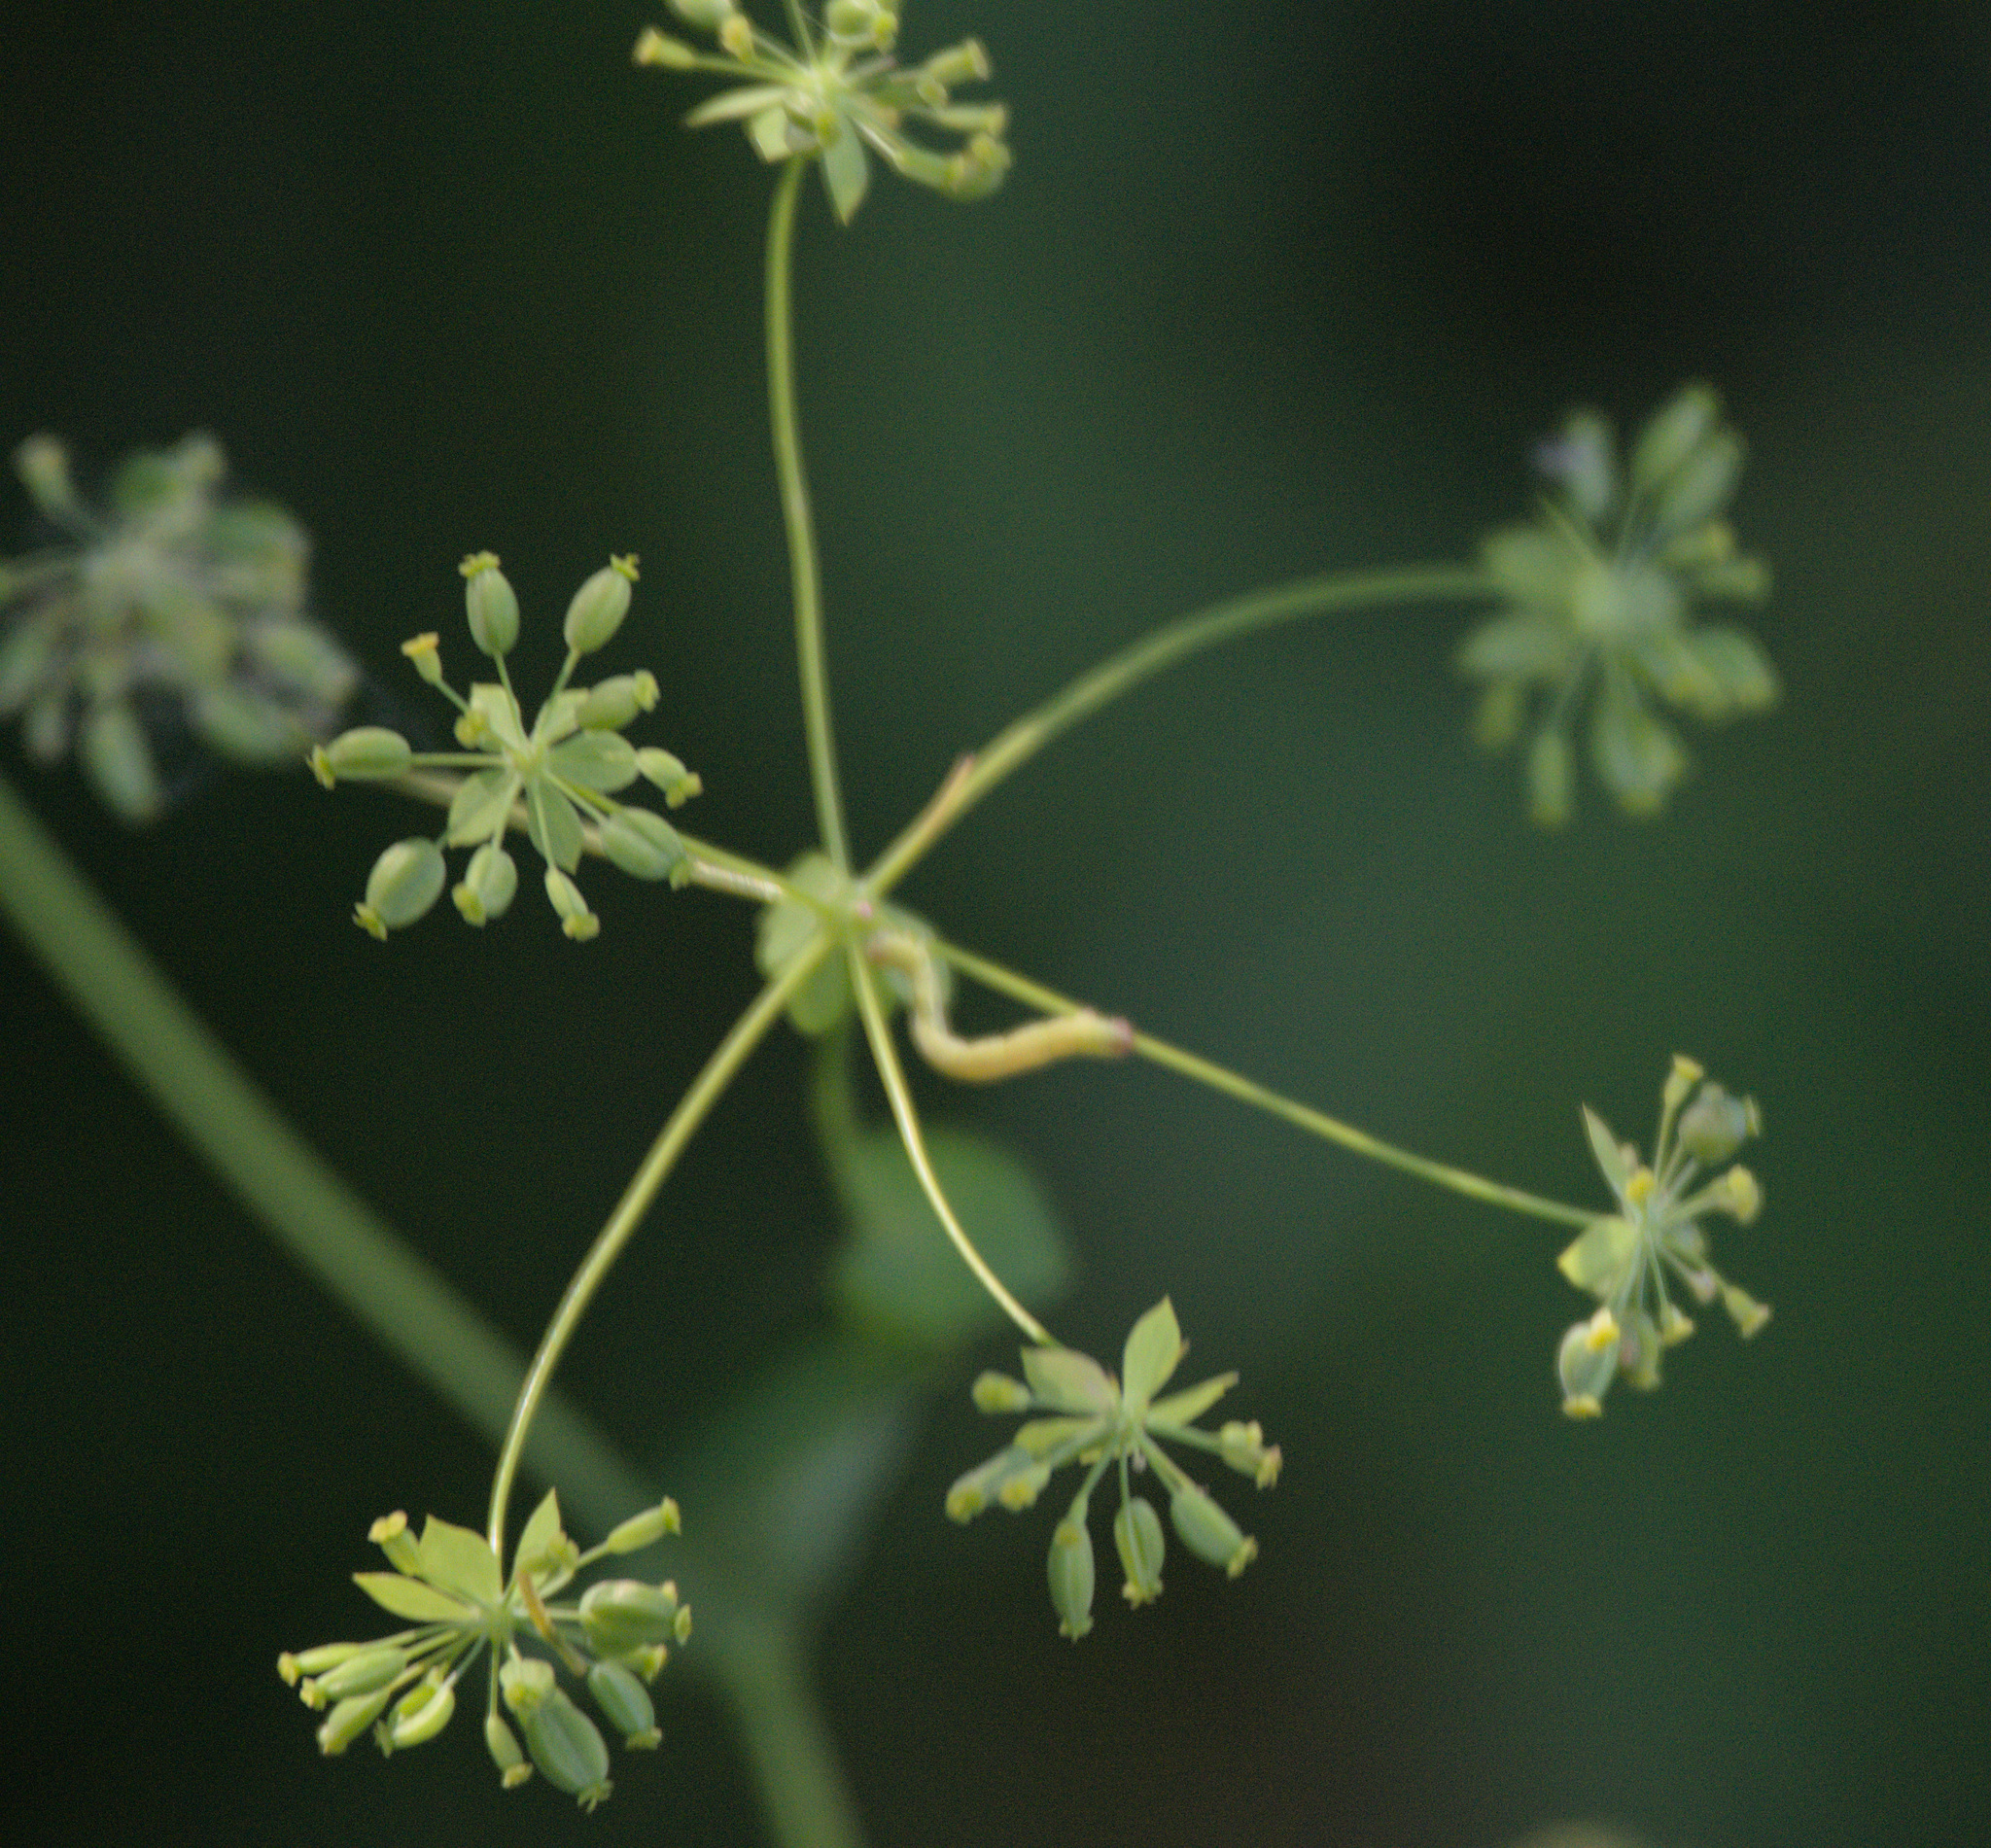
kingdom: Plantae
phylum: Tracheophyta
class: Magnoliopsida
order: Apiales
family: Apiaceae
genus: Bupleurum
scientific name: Bupleurum aureum
